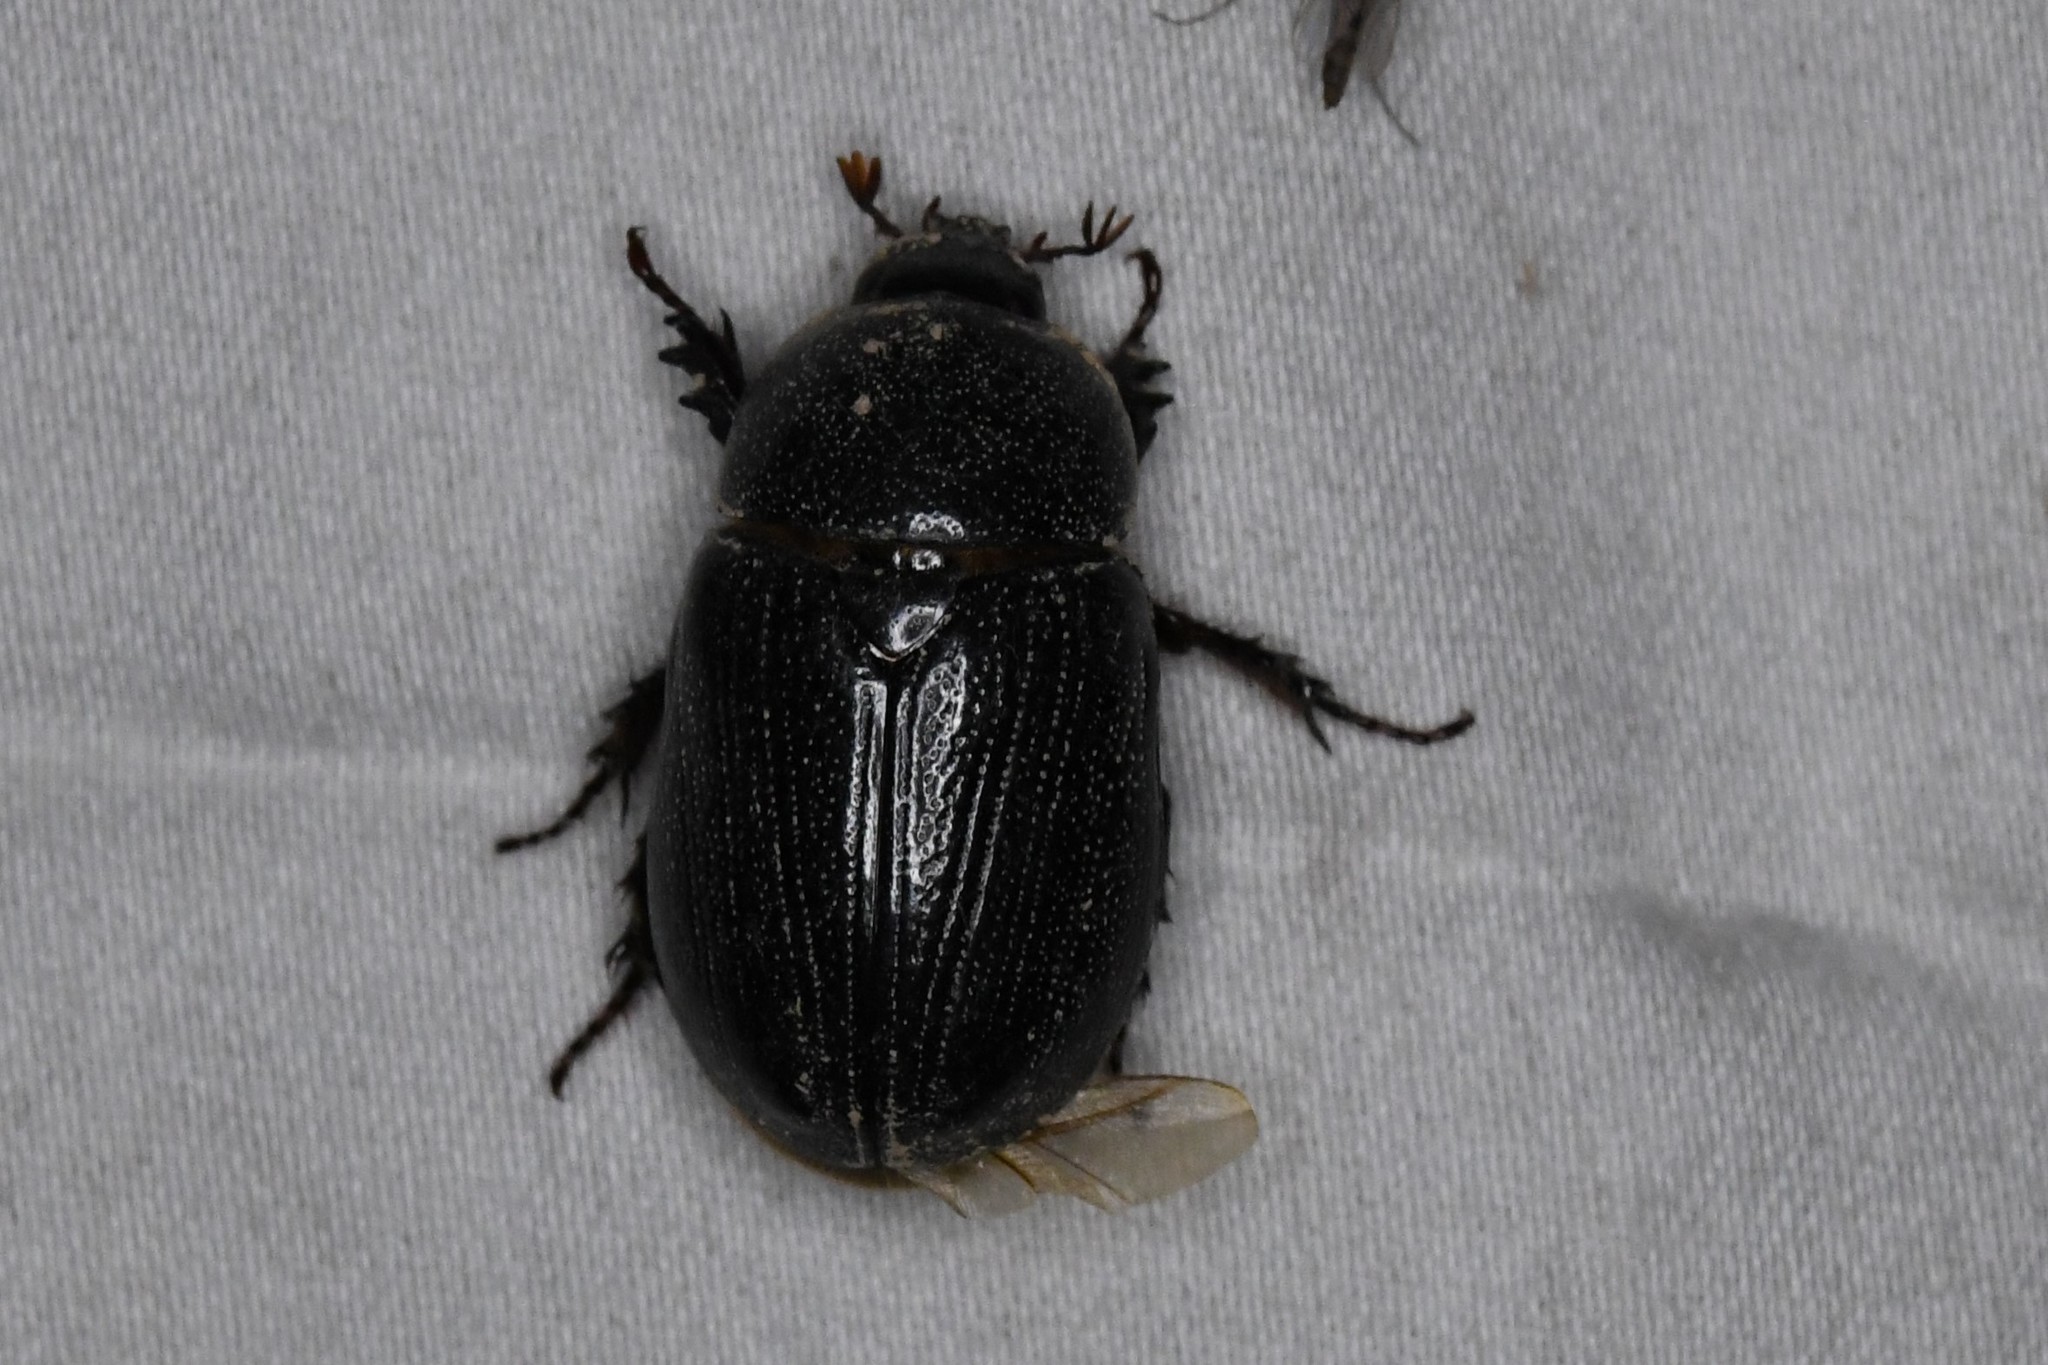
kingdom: Animalia
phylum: Arthropoda
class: Insecta
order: Coleoptera
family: Scarabaeidae
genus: Ligyrus
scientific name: Ligyrus relictus
